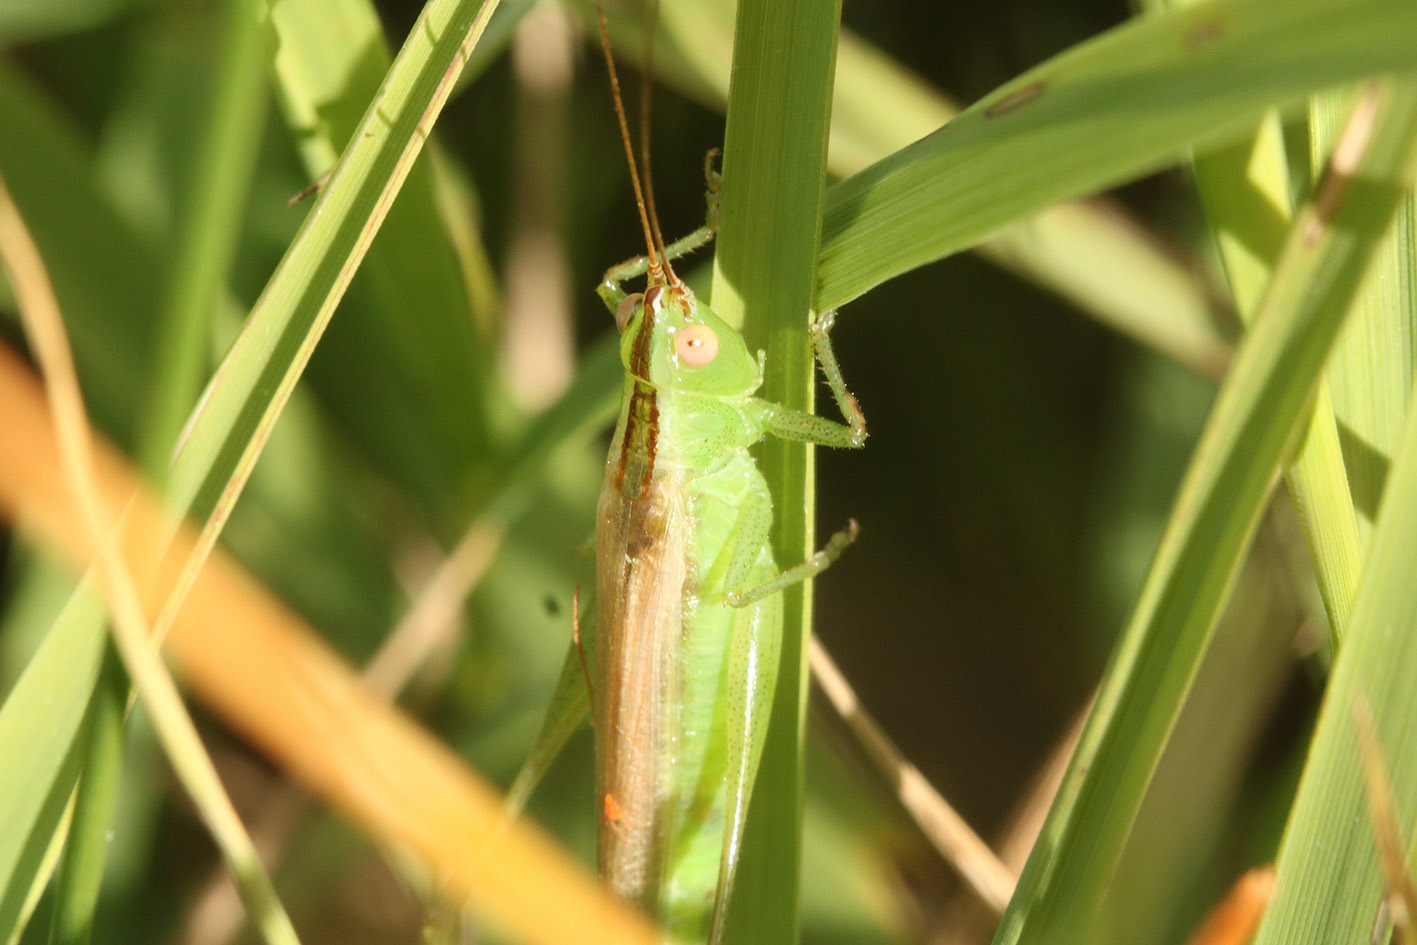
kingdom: Animalia
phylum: Arthropoda
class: Insecta
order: Orthoptera
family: Tettigoniidae
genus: Conocephalus
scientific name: Conocephalus longipes
